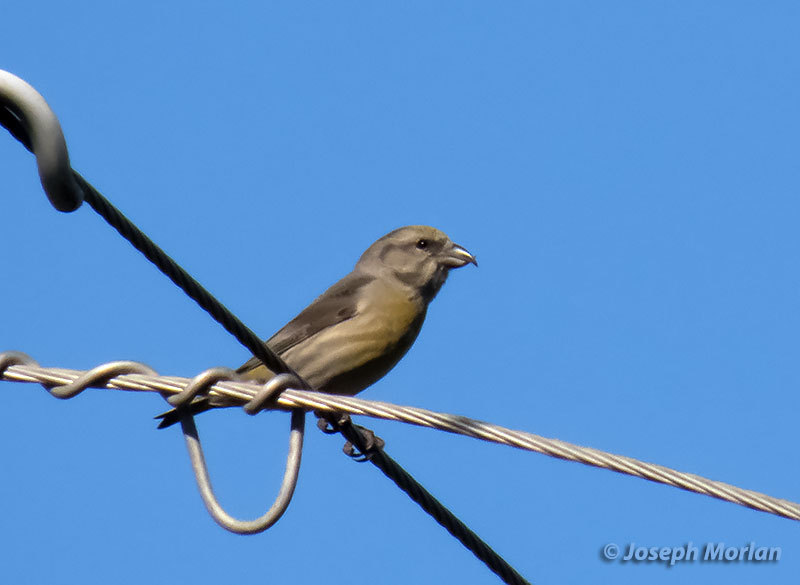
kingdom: Animalia
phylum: Chordata
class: Aves
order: Passeriformes
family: Fringillidae
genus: Loxia
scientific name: Loxia curvirostra
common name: Red crossbill
